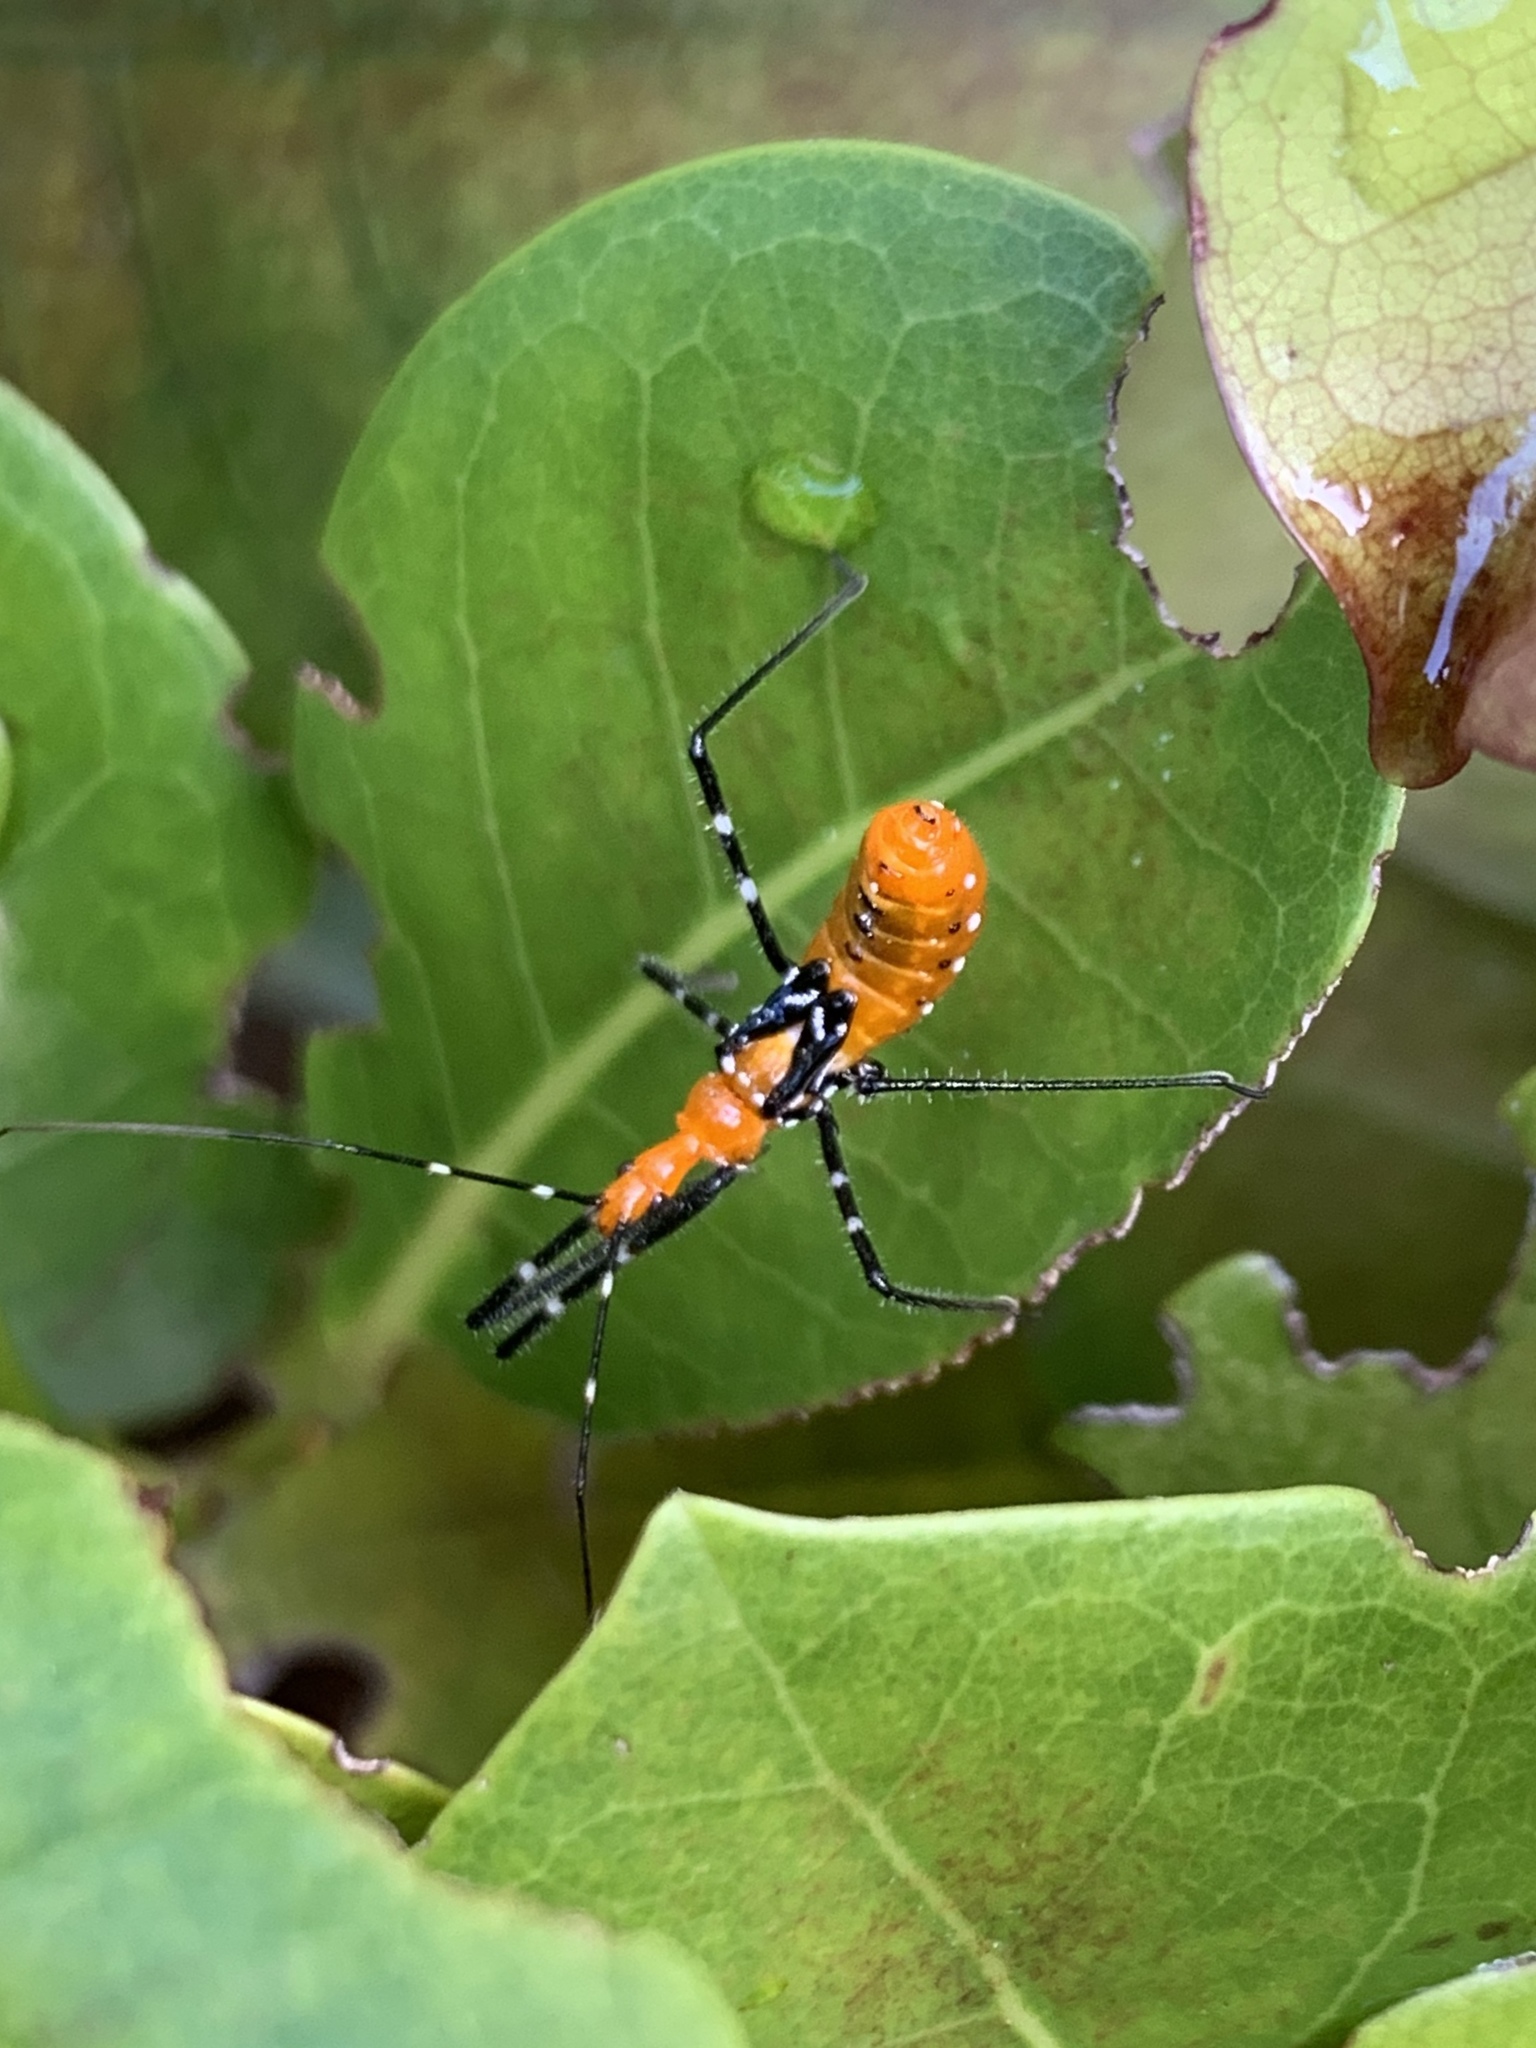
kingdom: Animalia
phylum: Arthropoda
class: Insecta
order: Hemiptera
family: Reduviidae
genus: Zelus
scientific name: Zelus longipes
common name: Milkweed assassin bug
